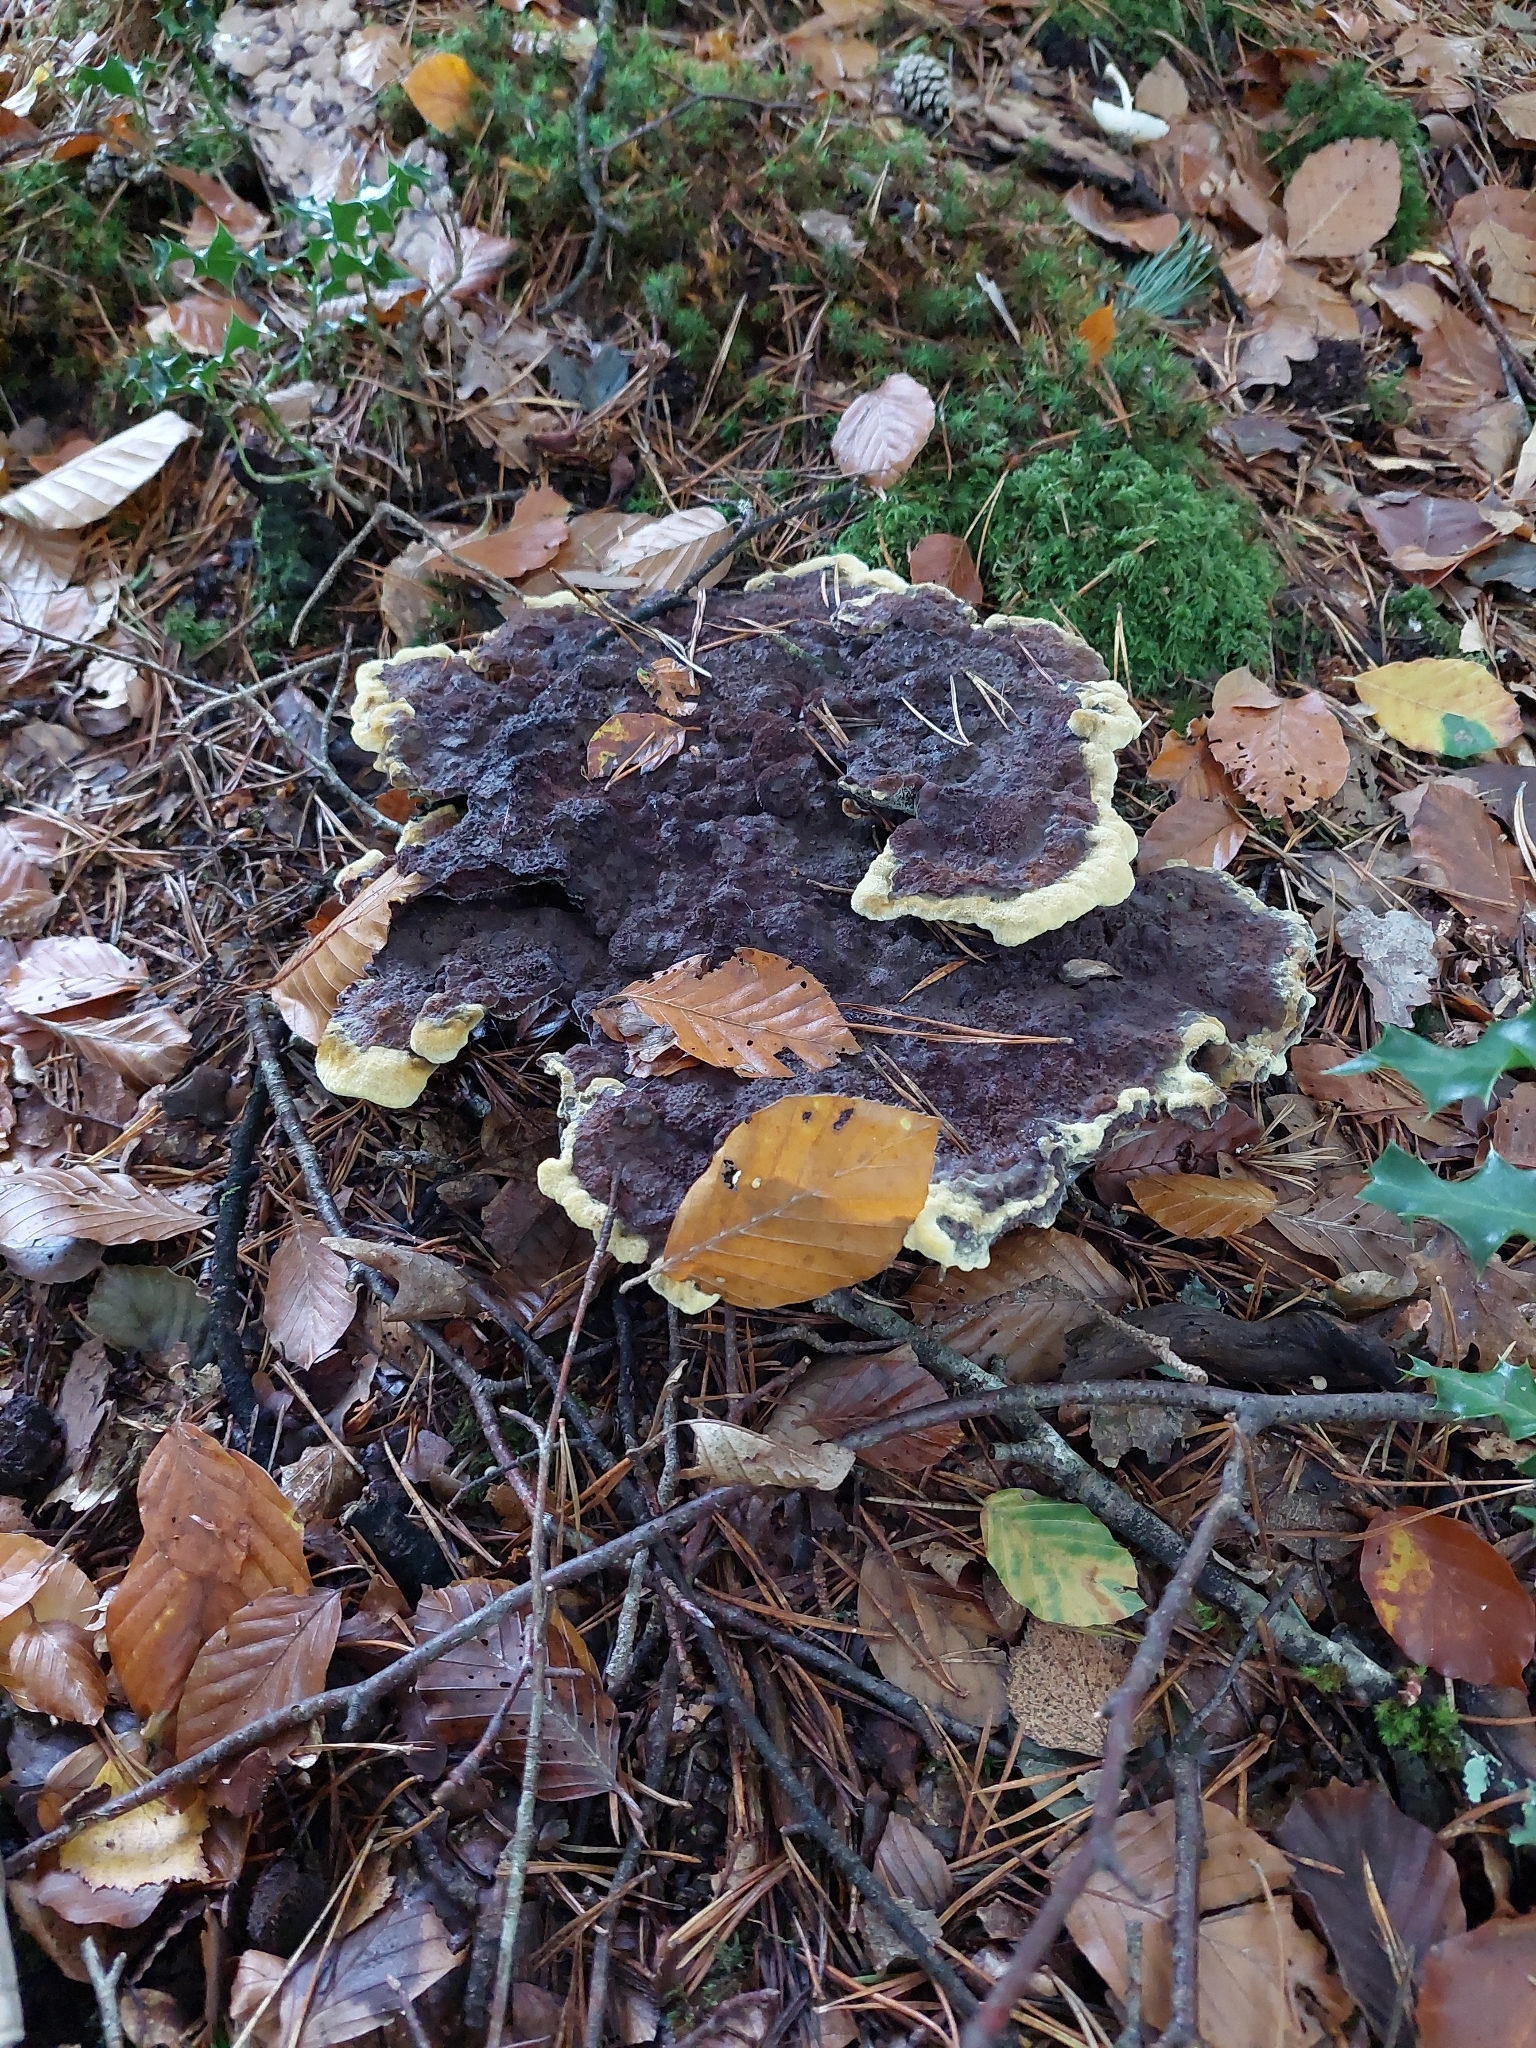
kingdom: Fungi
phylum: Basidiomycota
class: Agaricomycetes
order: Polyporales
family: Laetiporaceae
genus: Phaeolus
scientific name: Phaeolus schweinitzii
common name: Dyer's mazegill
